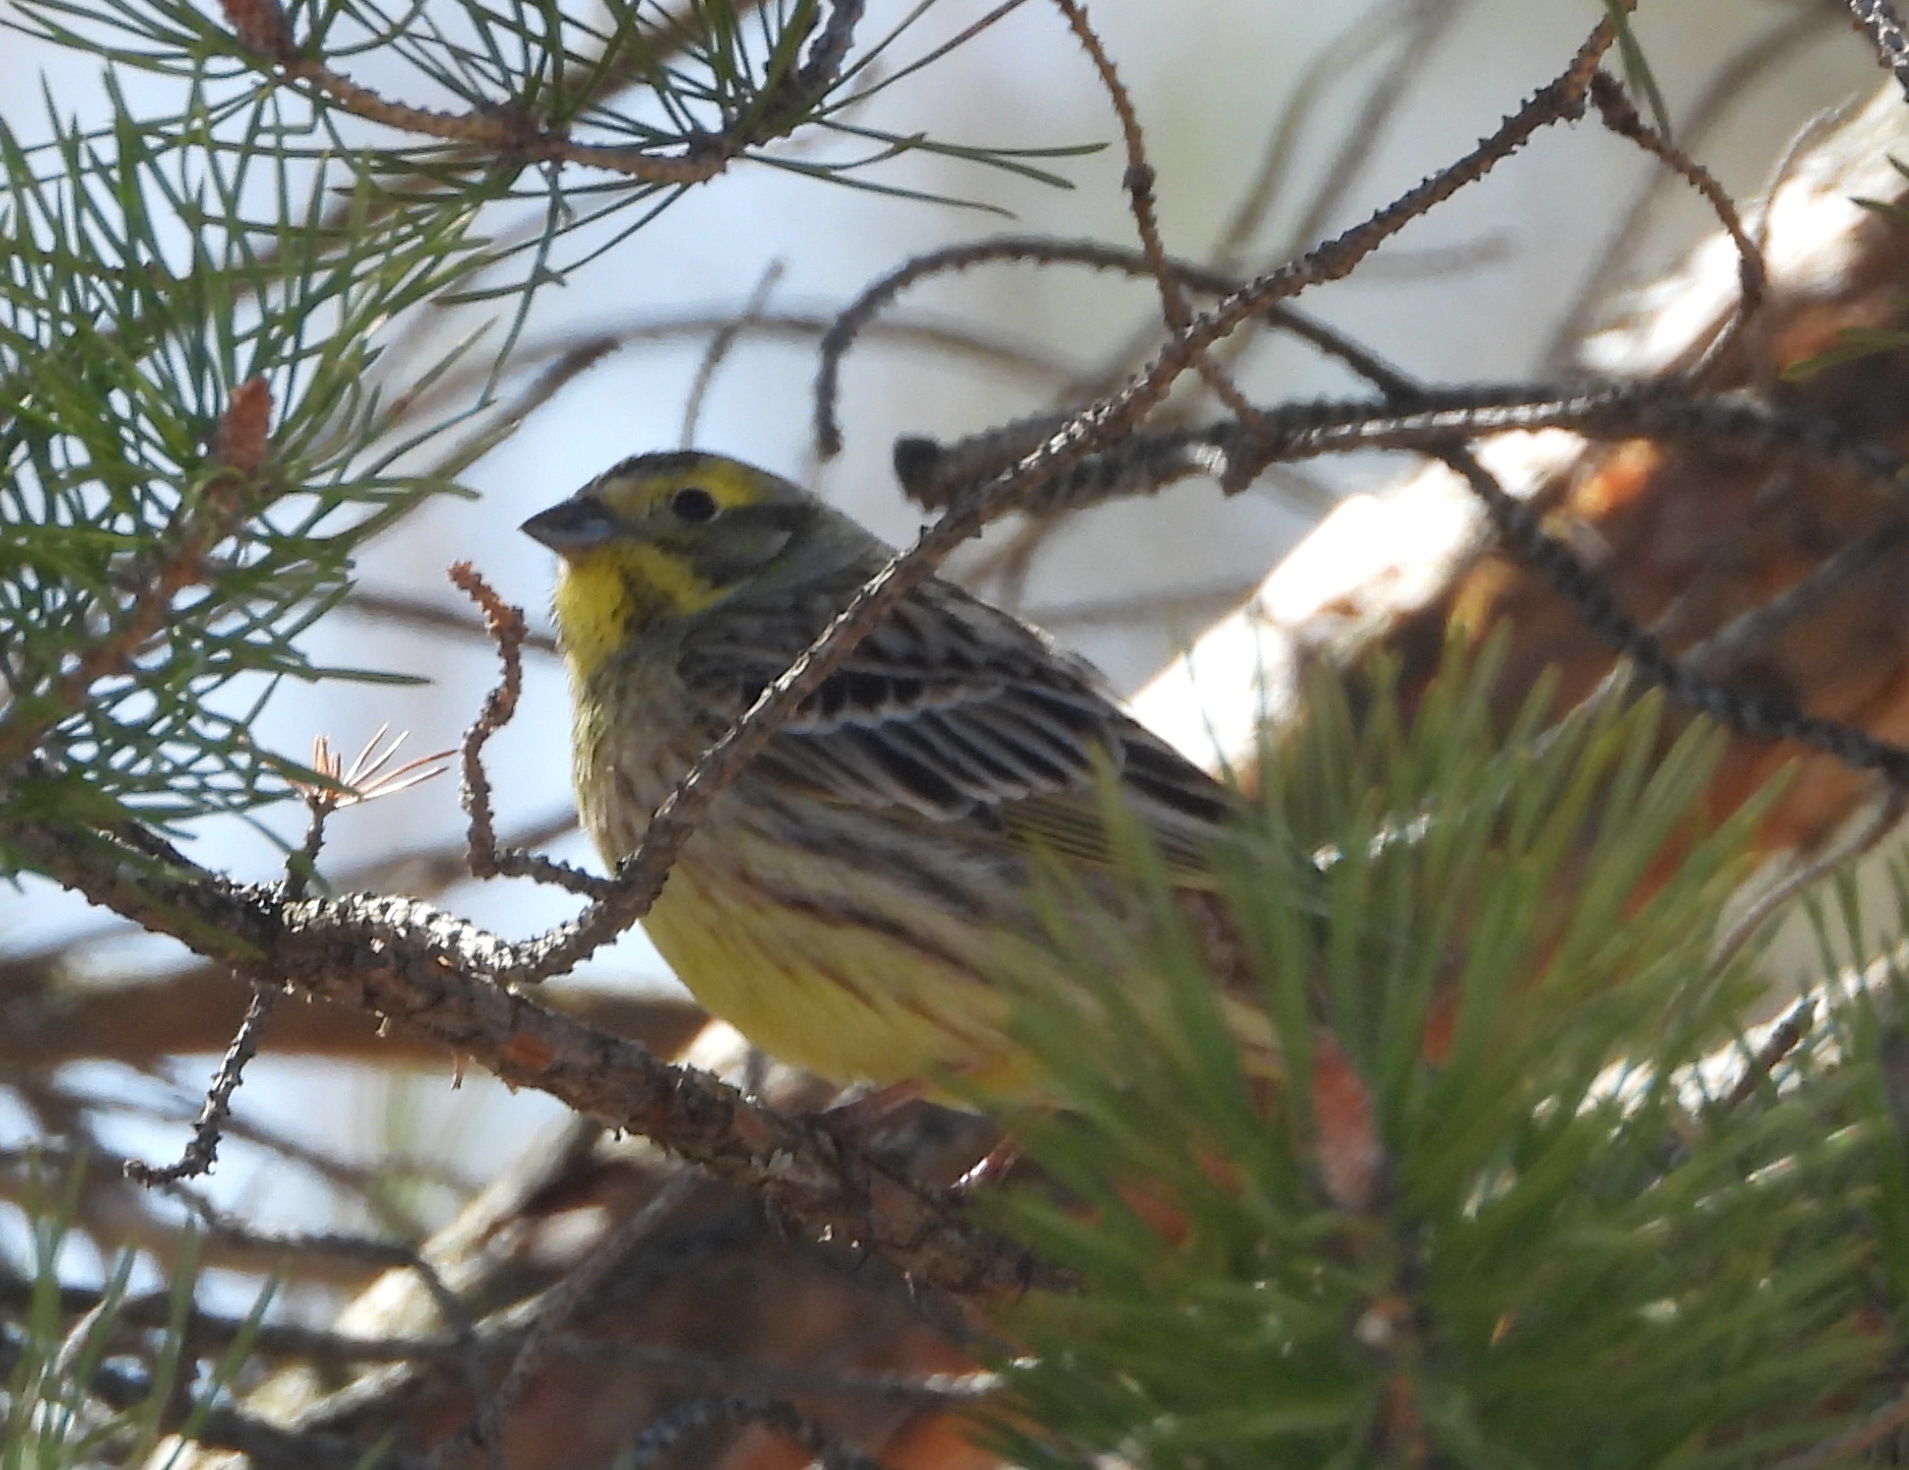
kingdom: Animalia
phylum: Chordata
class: Aves
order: Passeriformes
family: Emberizidae
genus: Emberiza
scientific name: Emberiza citrinella
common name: Yellowhammer
